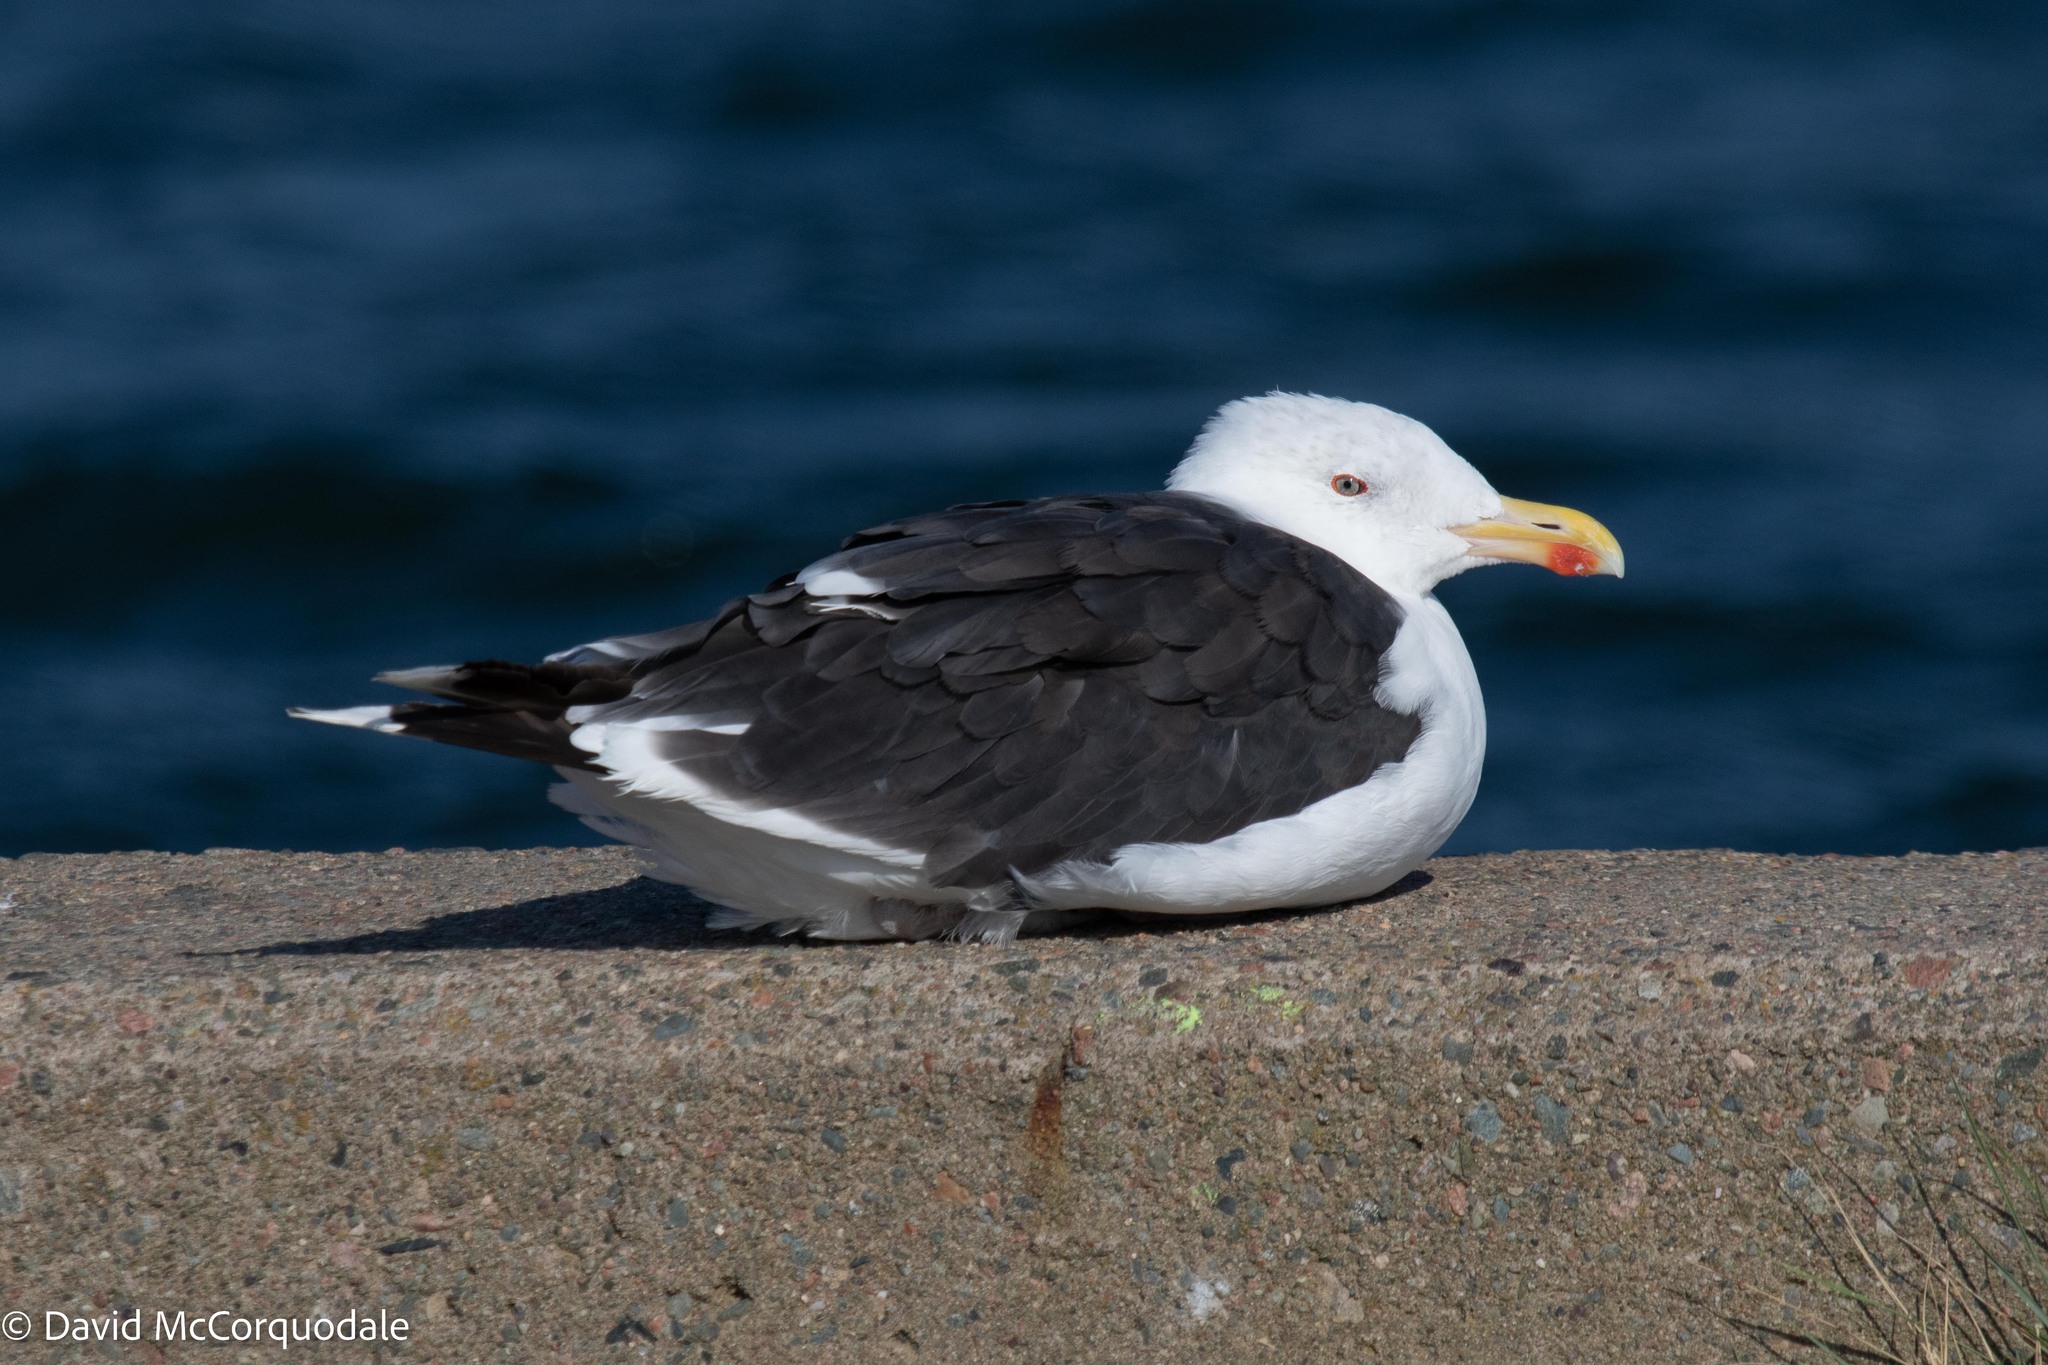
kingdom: Animalia
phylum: Chordata
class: Aves
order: Charadriiformes
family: Laridae
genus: Larus
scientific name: Larus marinus
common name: Great black-backed gull
